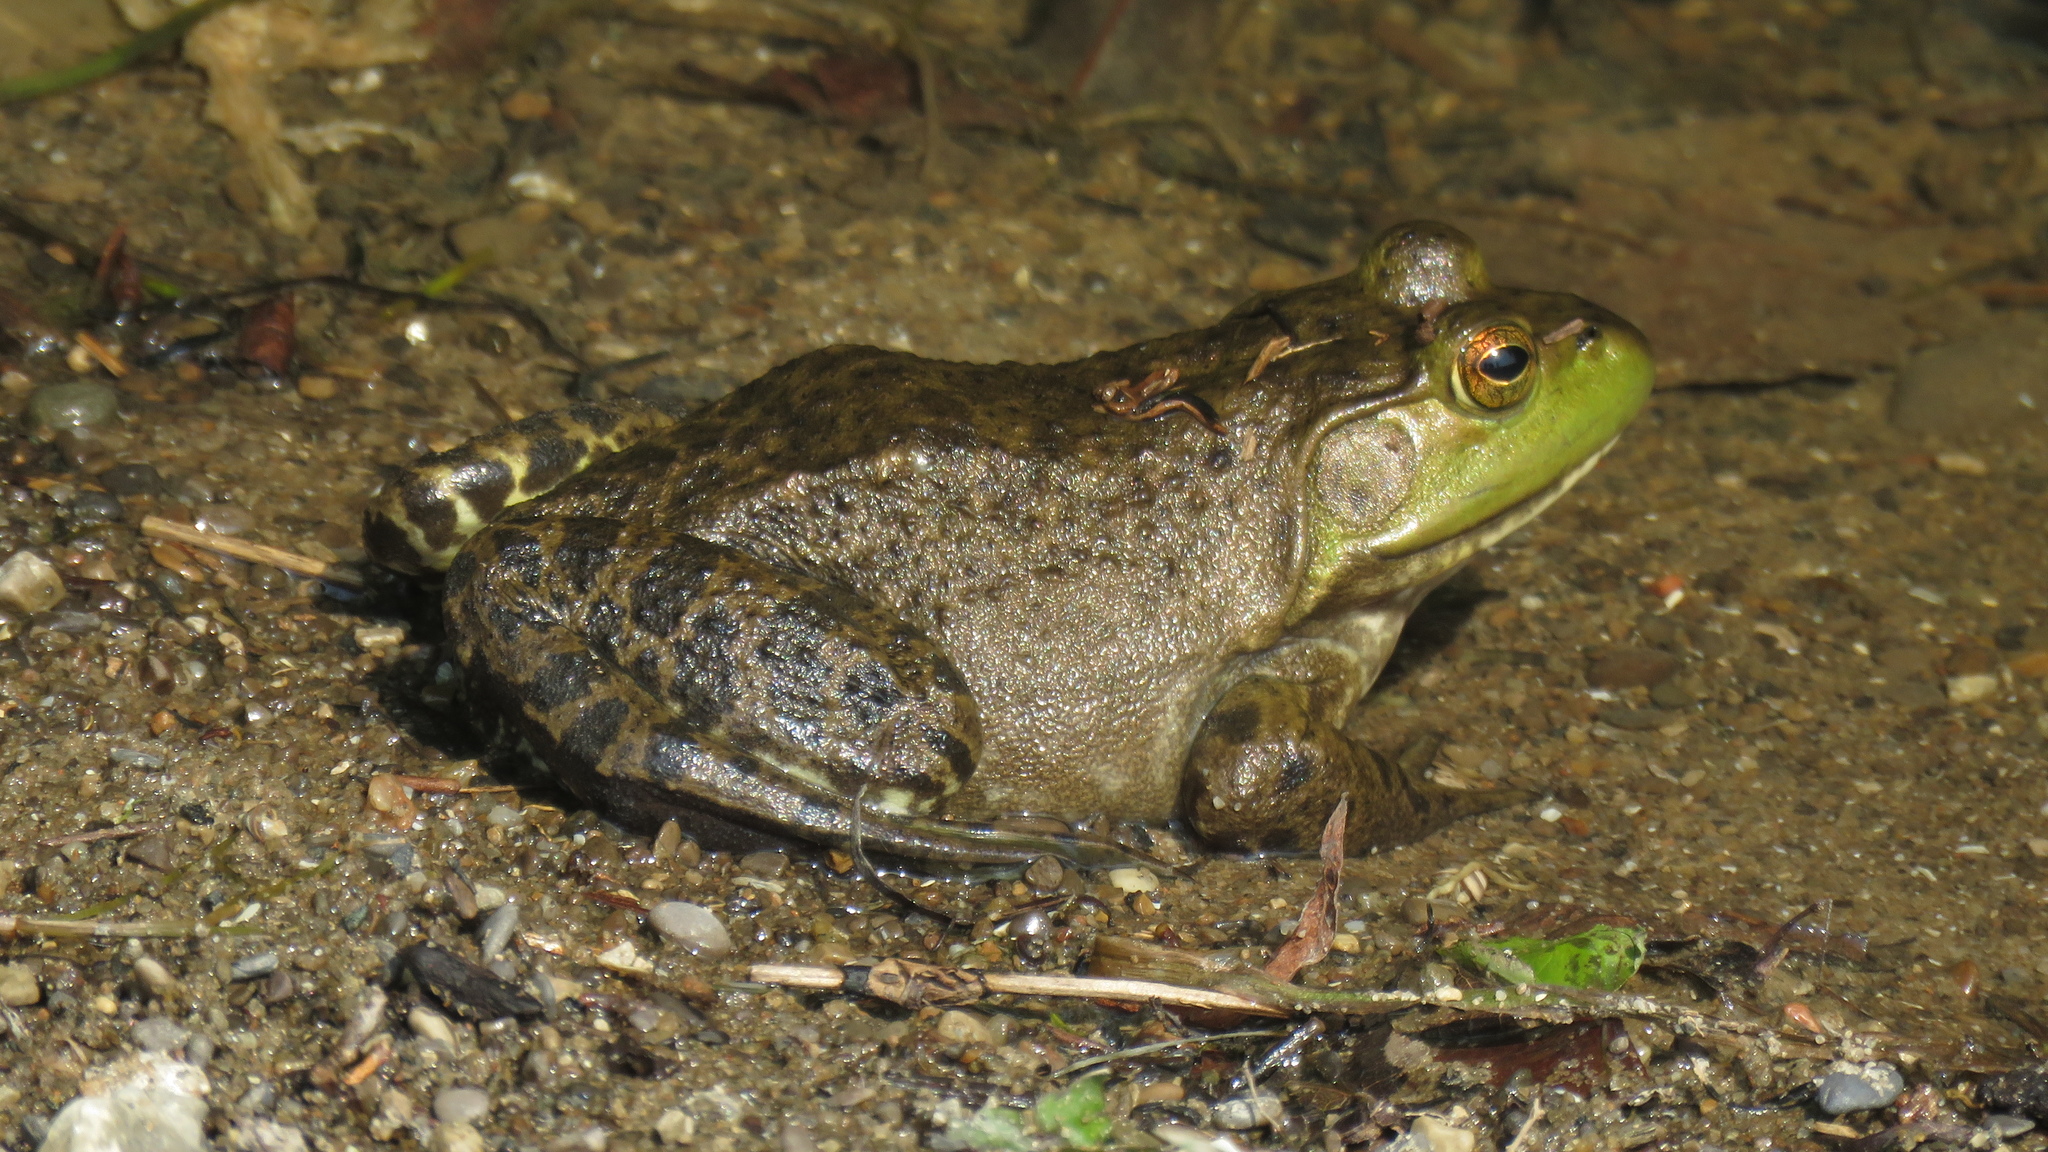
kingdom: Animalia
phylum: Chordata
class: Amphibia
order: Anura
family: Ranidae
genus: Lithobates
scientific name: Lithobates catesbeianus
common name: American bullfrog
